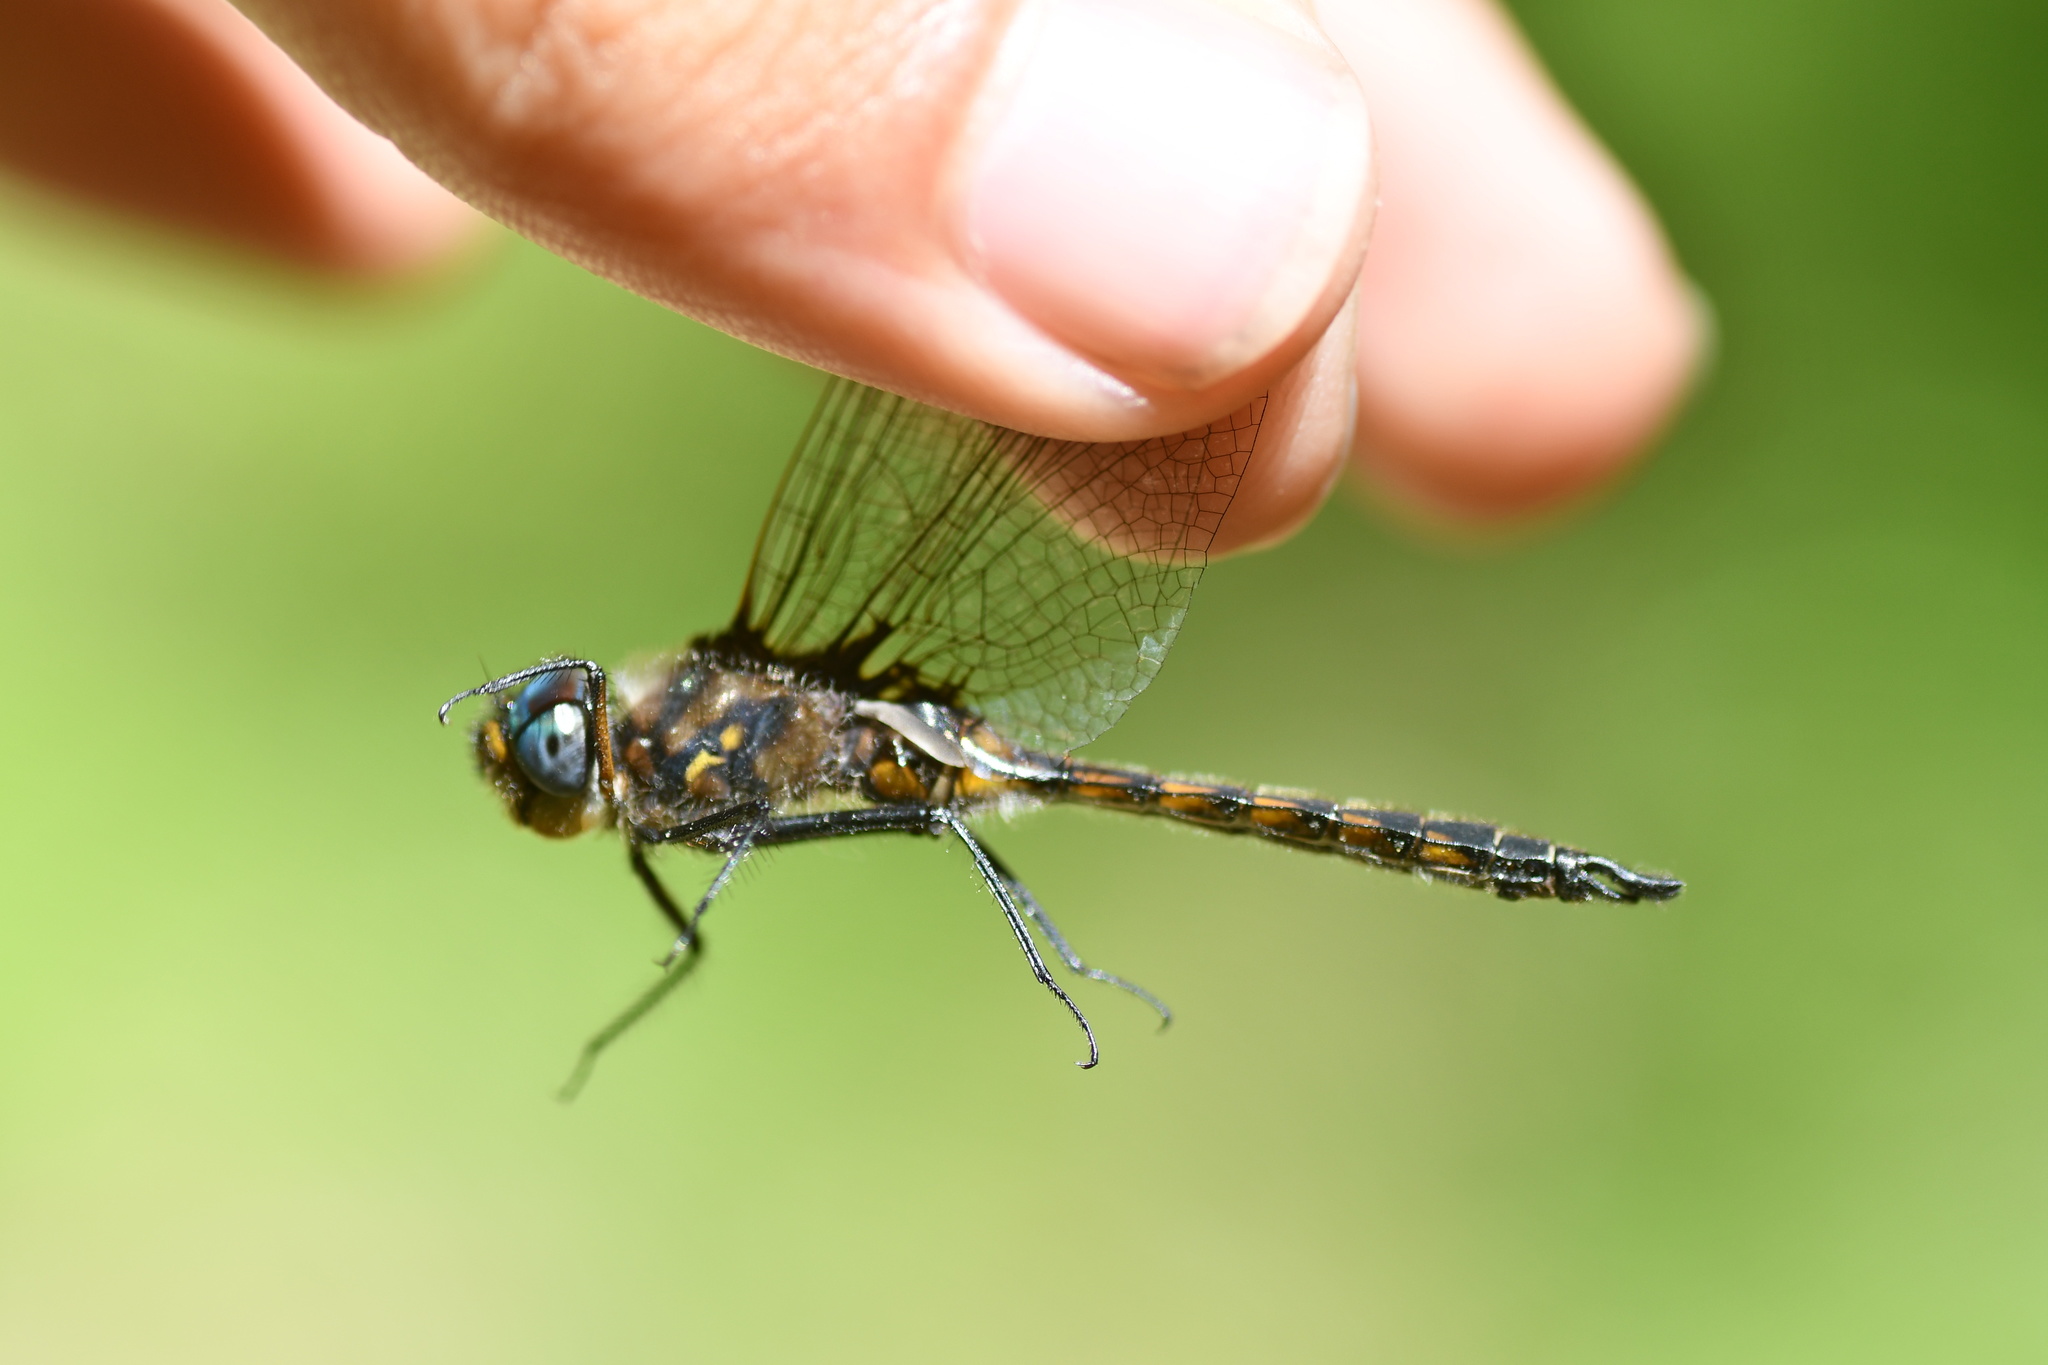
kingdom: Animalia
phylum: Arthropoda
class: Insecta
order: Odonata
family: Corduliidae
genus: Epitheca
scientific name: Epitheca cynosura
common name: Common baskettail
